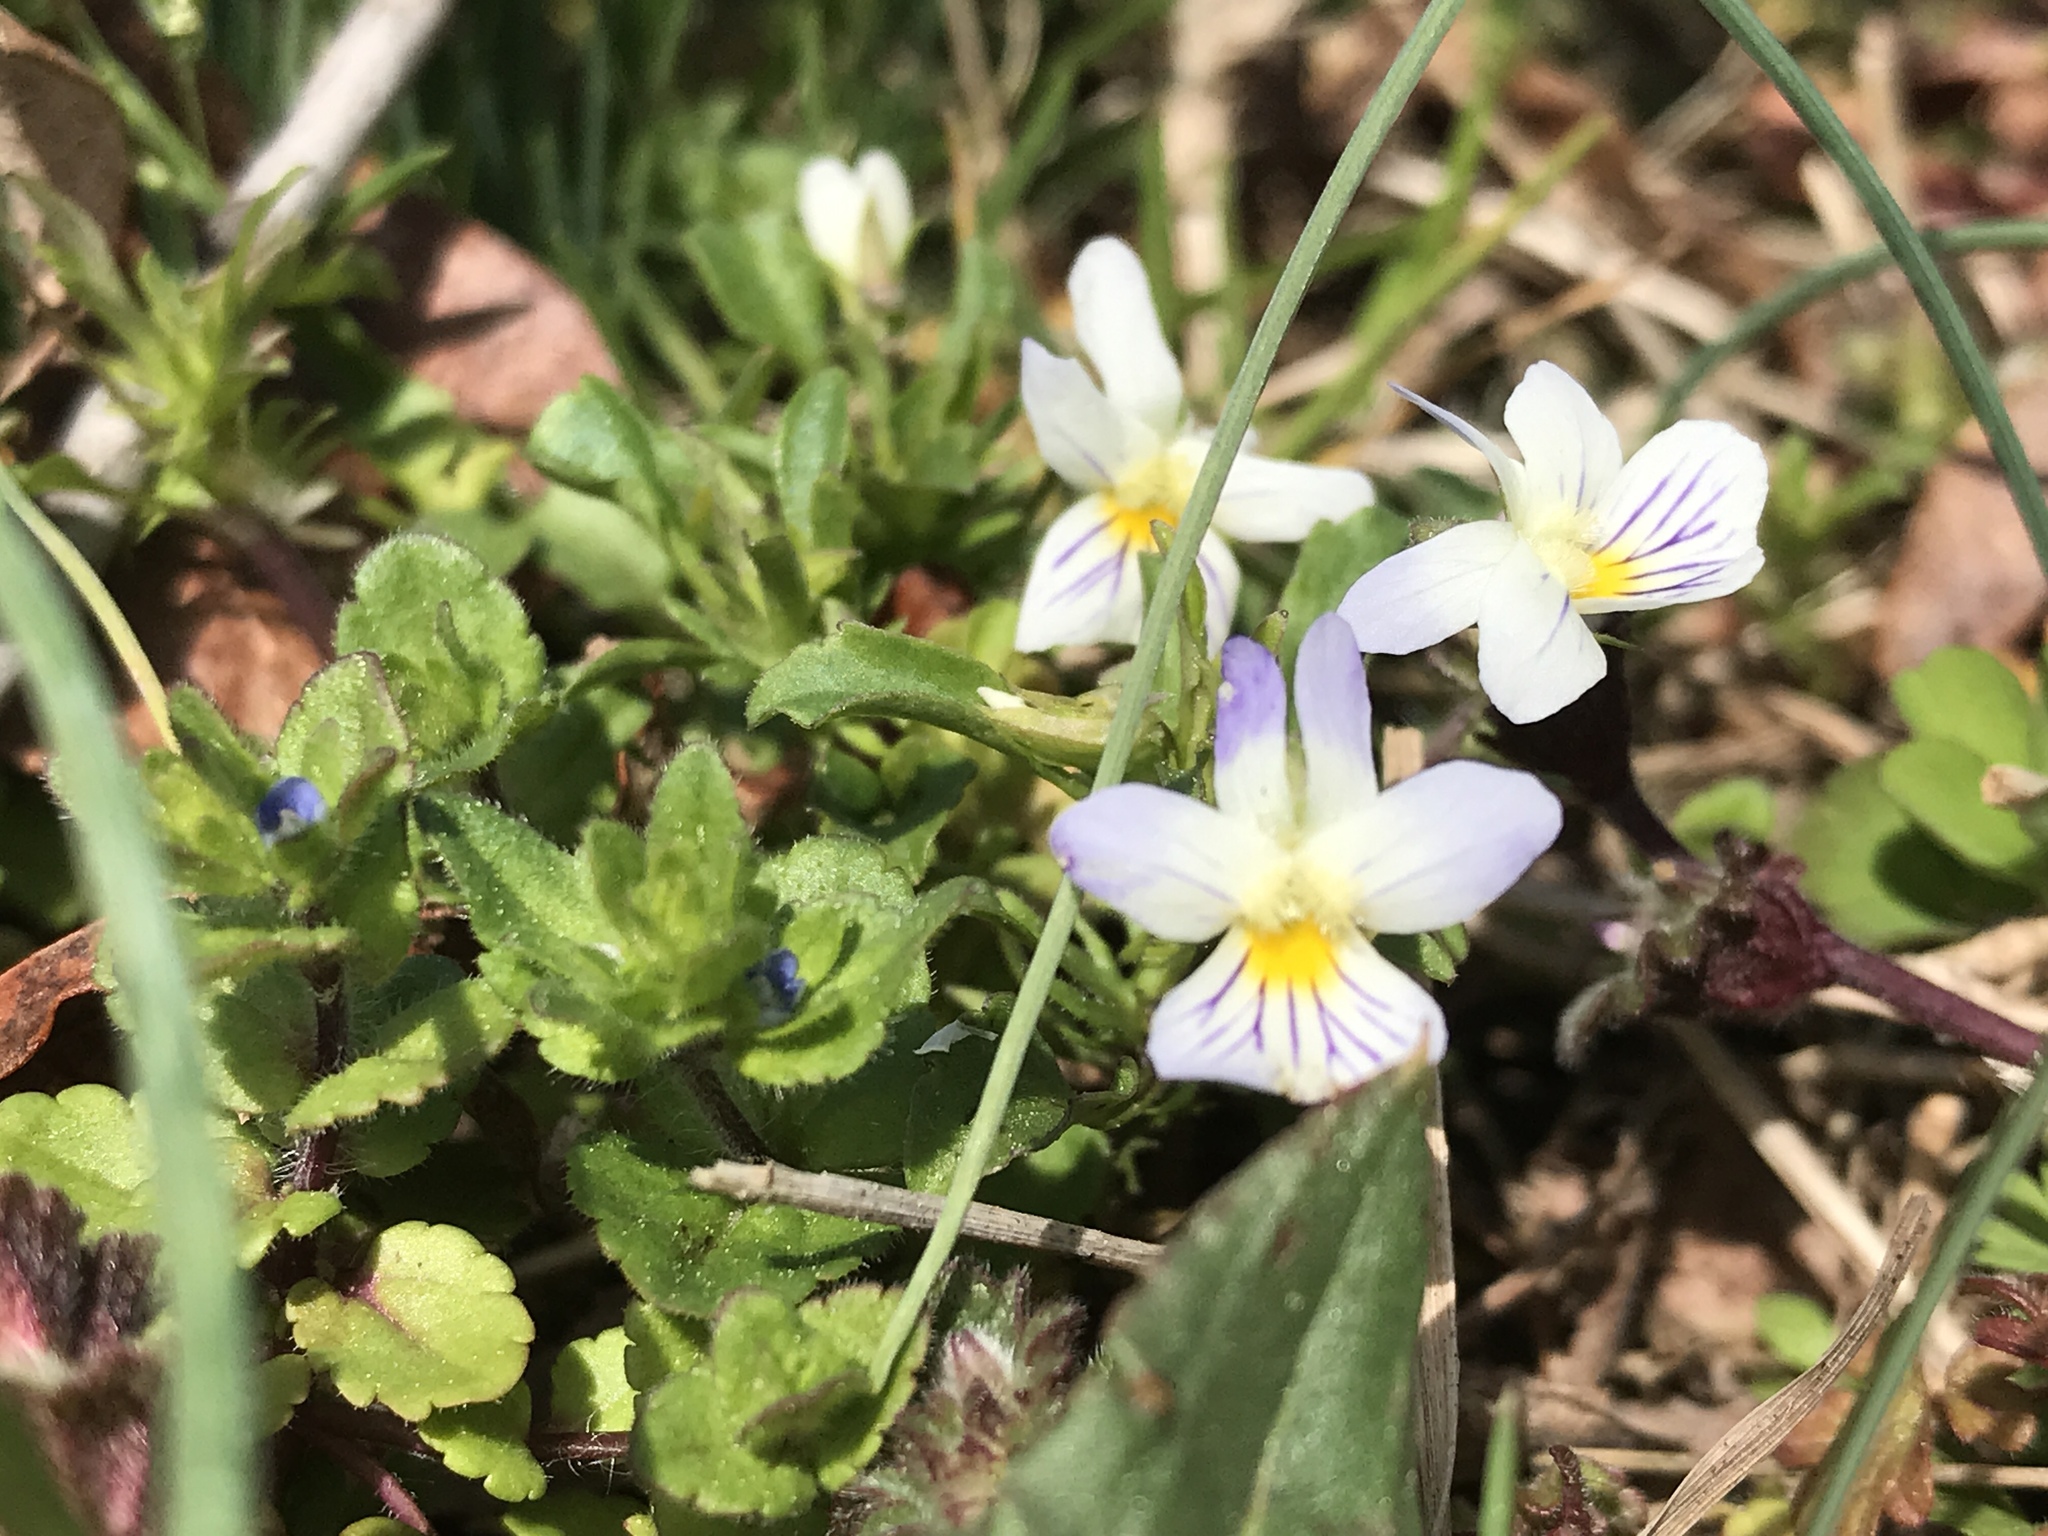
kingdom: Plantae
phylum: Tracheophyta
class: Magnoliopsida
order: Malpighiales
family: Violaceae
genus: Viola
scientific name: Viola rafinesquei
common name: American field pansy
